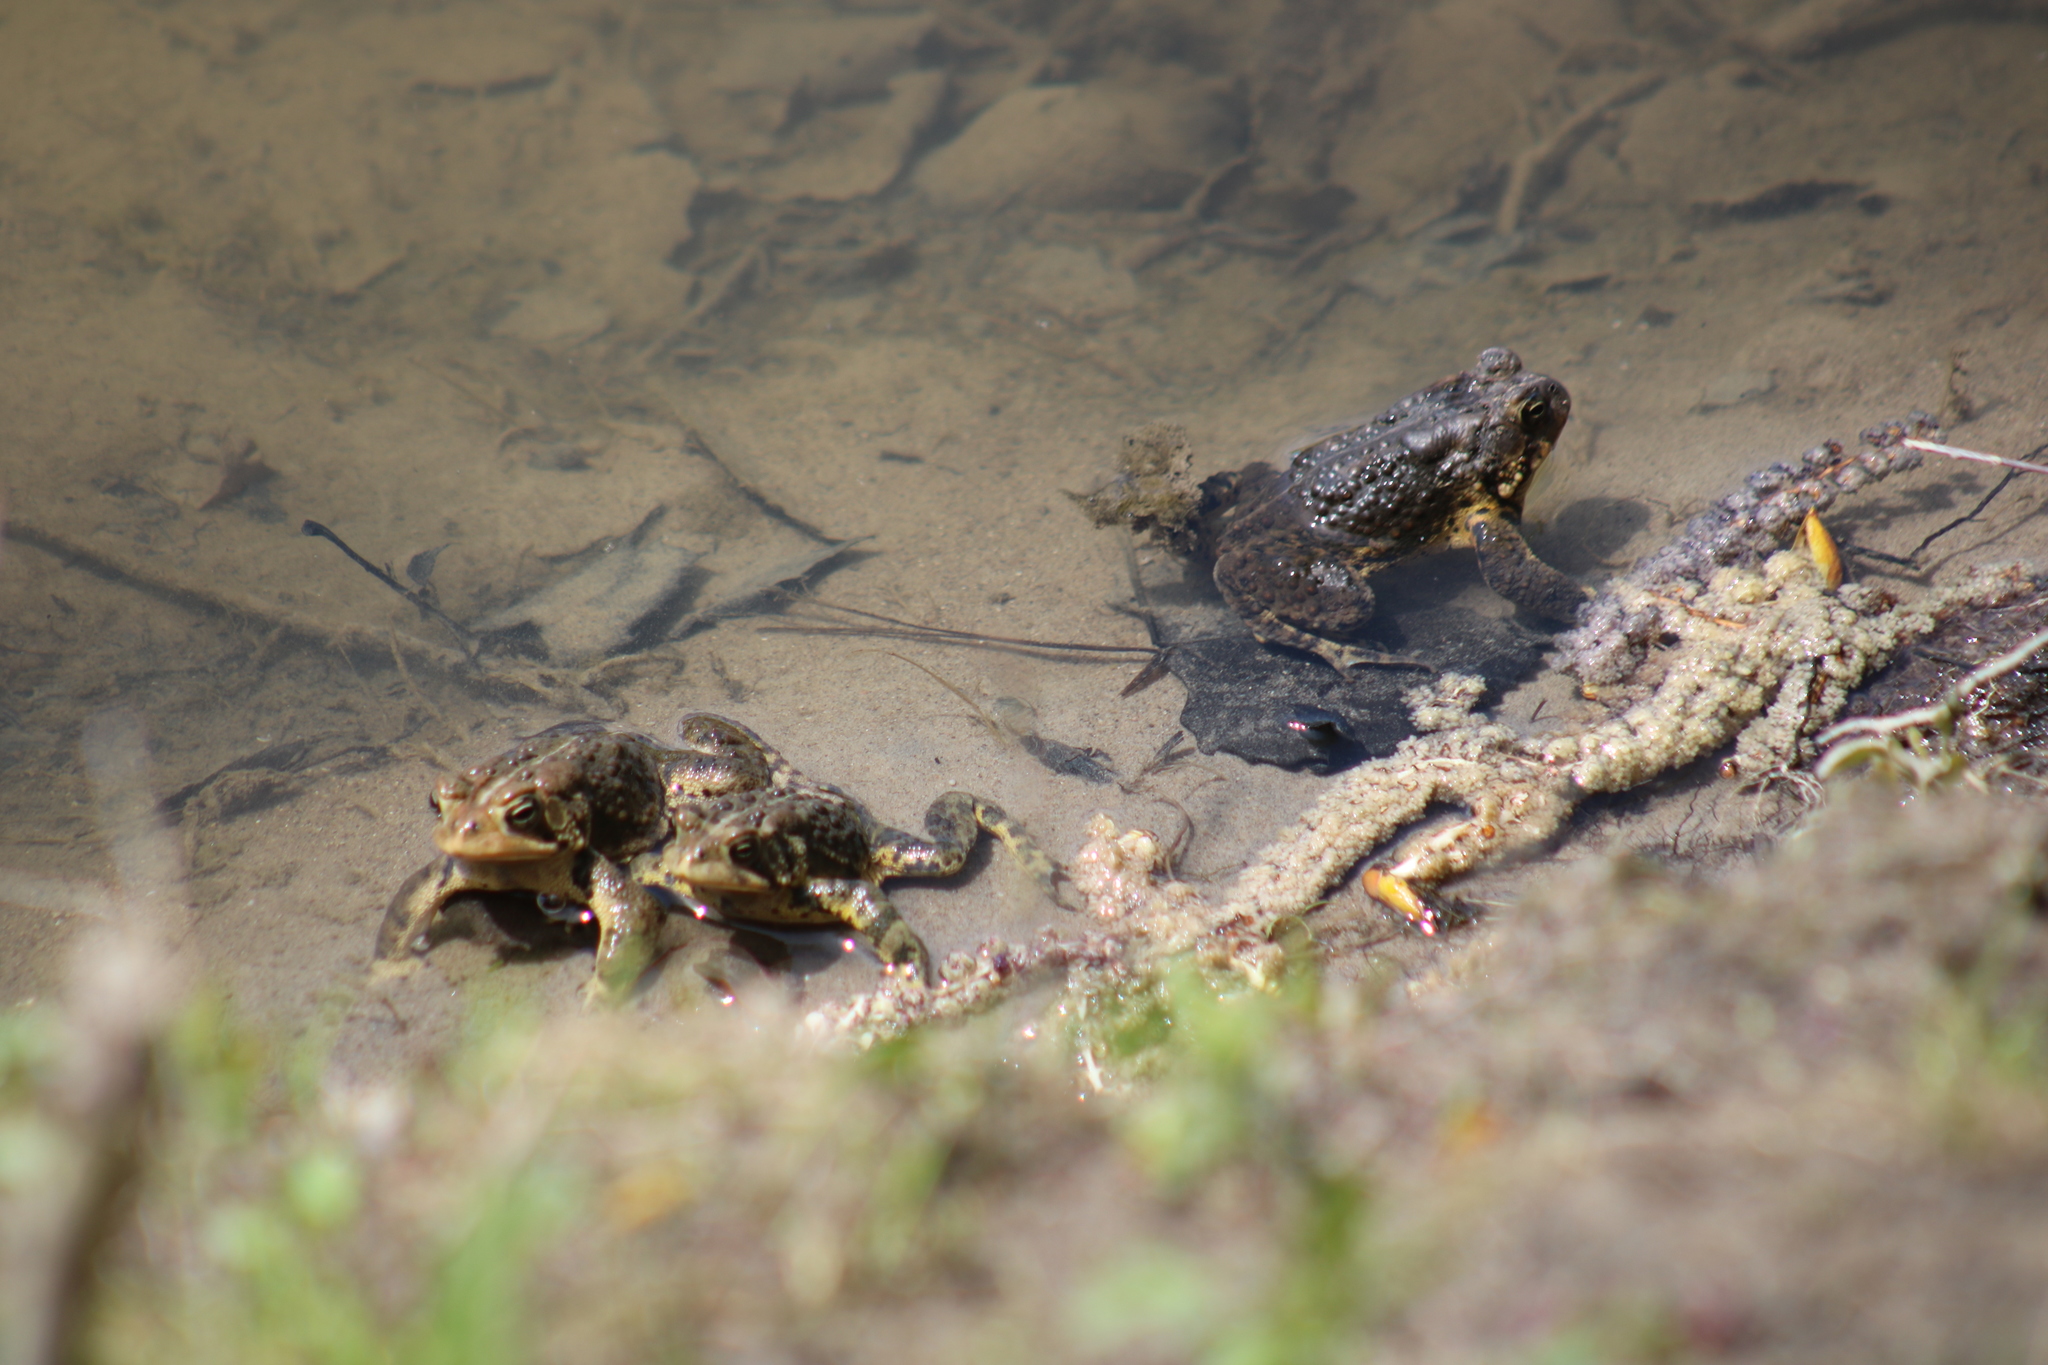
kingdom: Animalia
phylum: Chordata
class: Amphibia
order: Anura
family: Bufonidae
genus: Anaxyrus
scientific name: Anaxyrus americanus
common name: American toad
